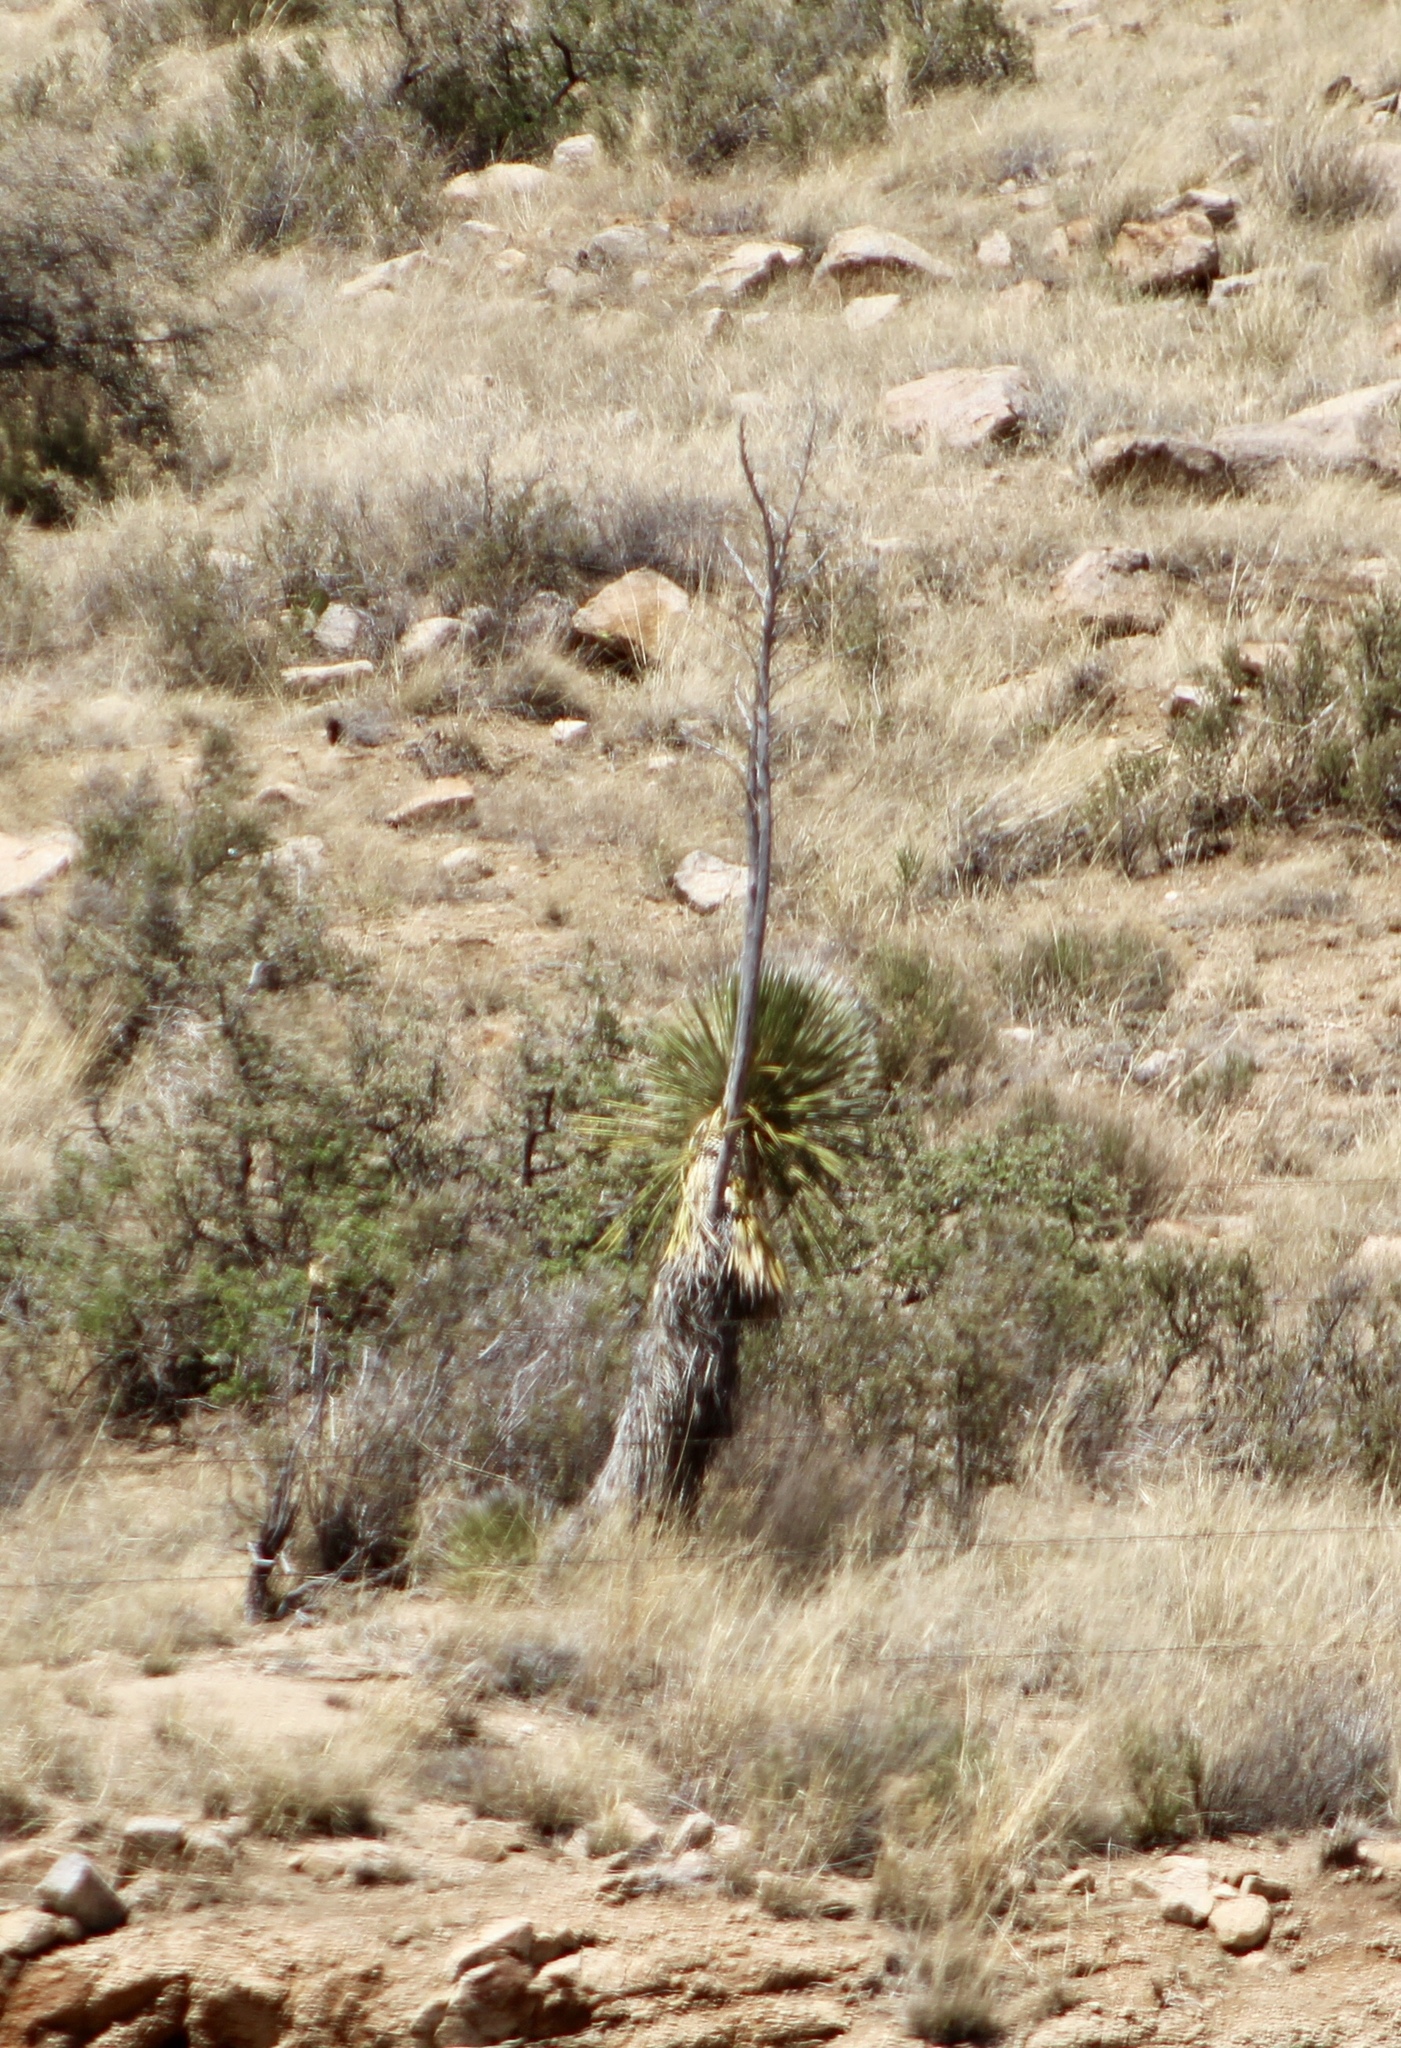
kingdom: Plantae
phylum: Tracheophyta
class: Liliopsida
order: Asparagales
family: Asparagaceae
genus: Yucca
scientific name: Yucca elata
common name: Palmella
